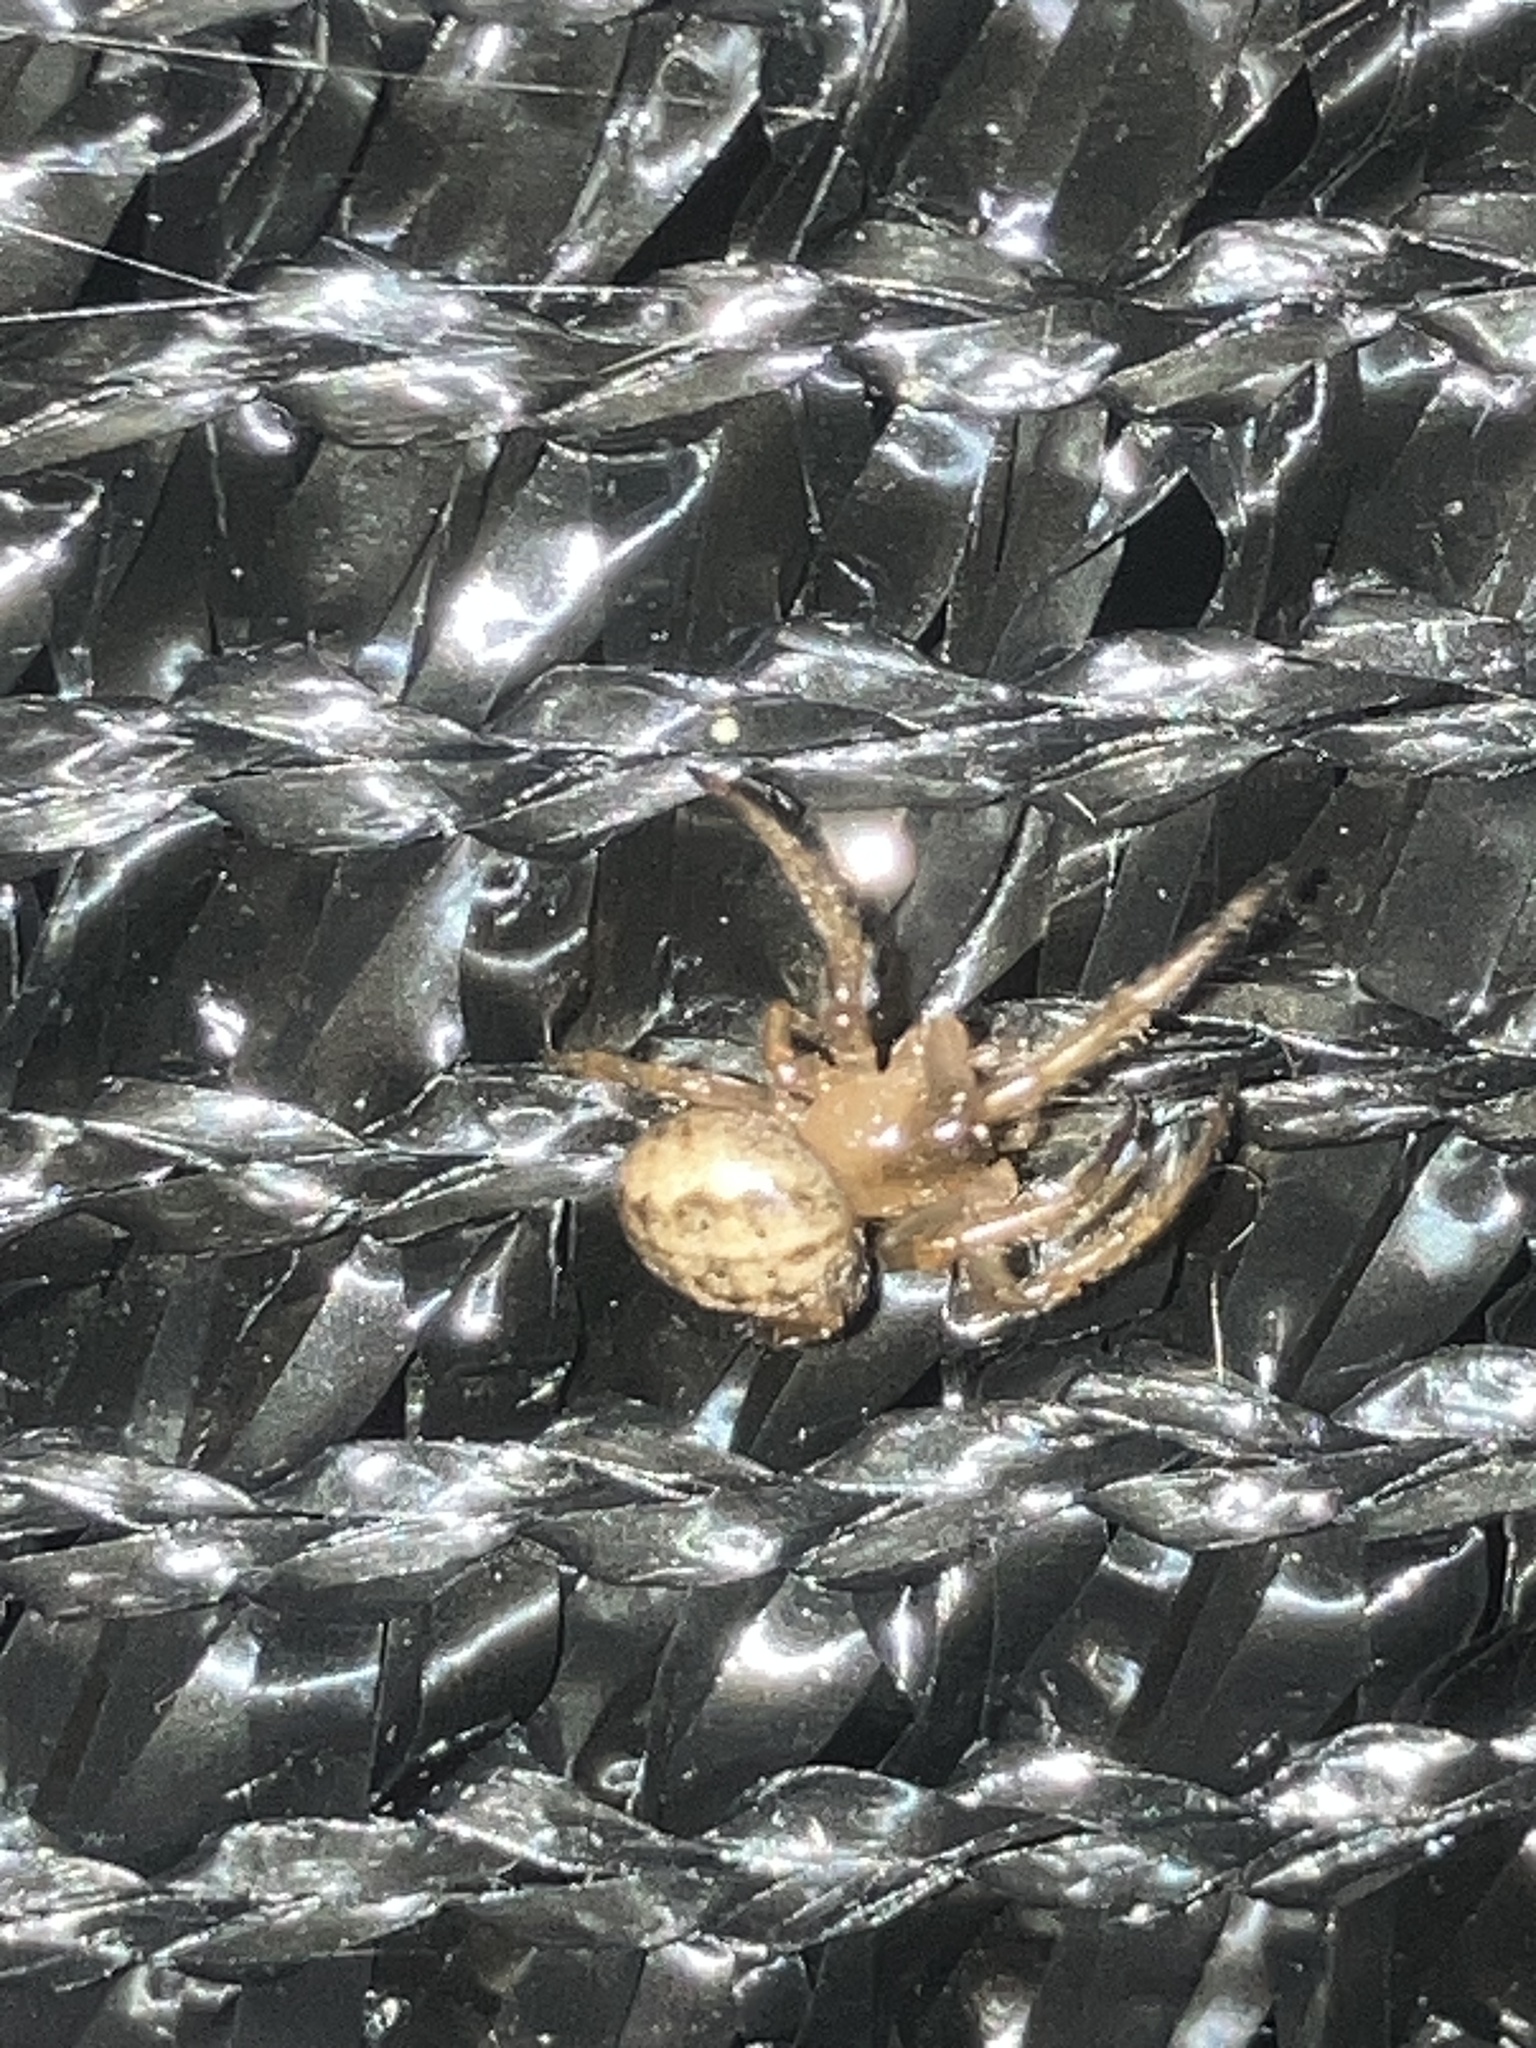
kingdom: Animalia
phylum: Arthropoda
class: Arachnida
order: Araneae
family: Araneidae
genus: Metazygia
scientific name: Metazygia wittfeldae
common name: Orb weavers
